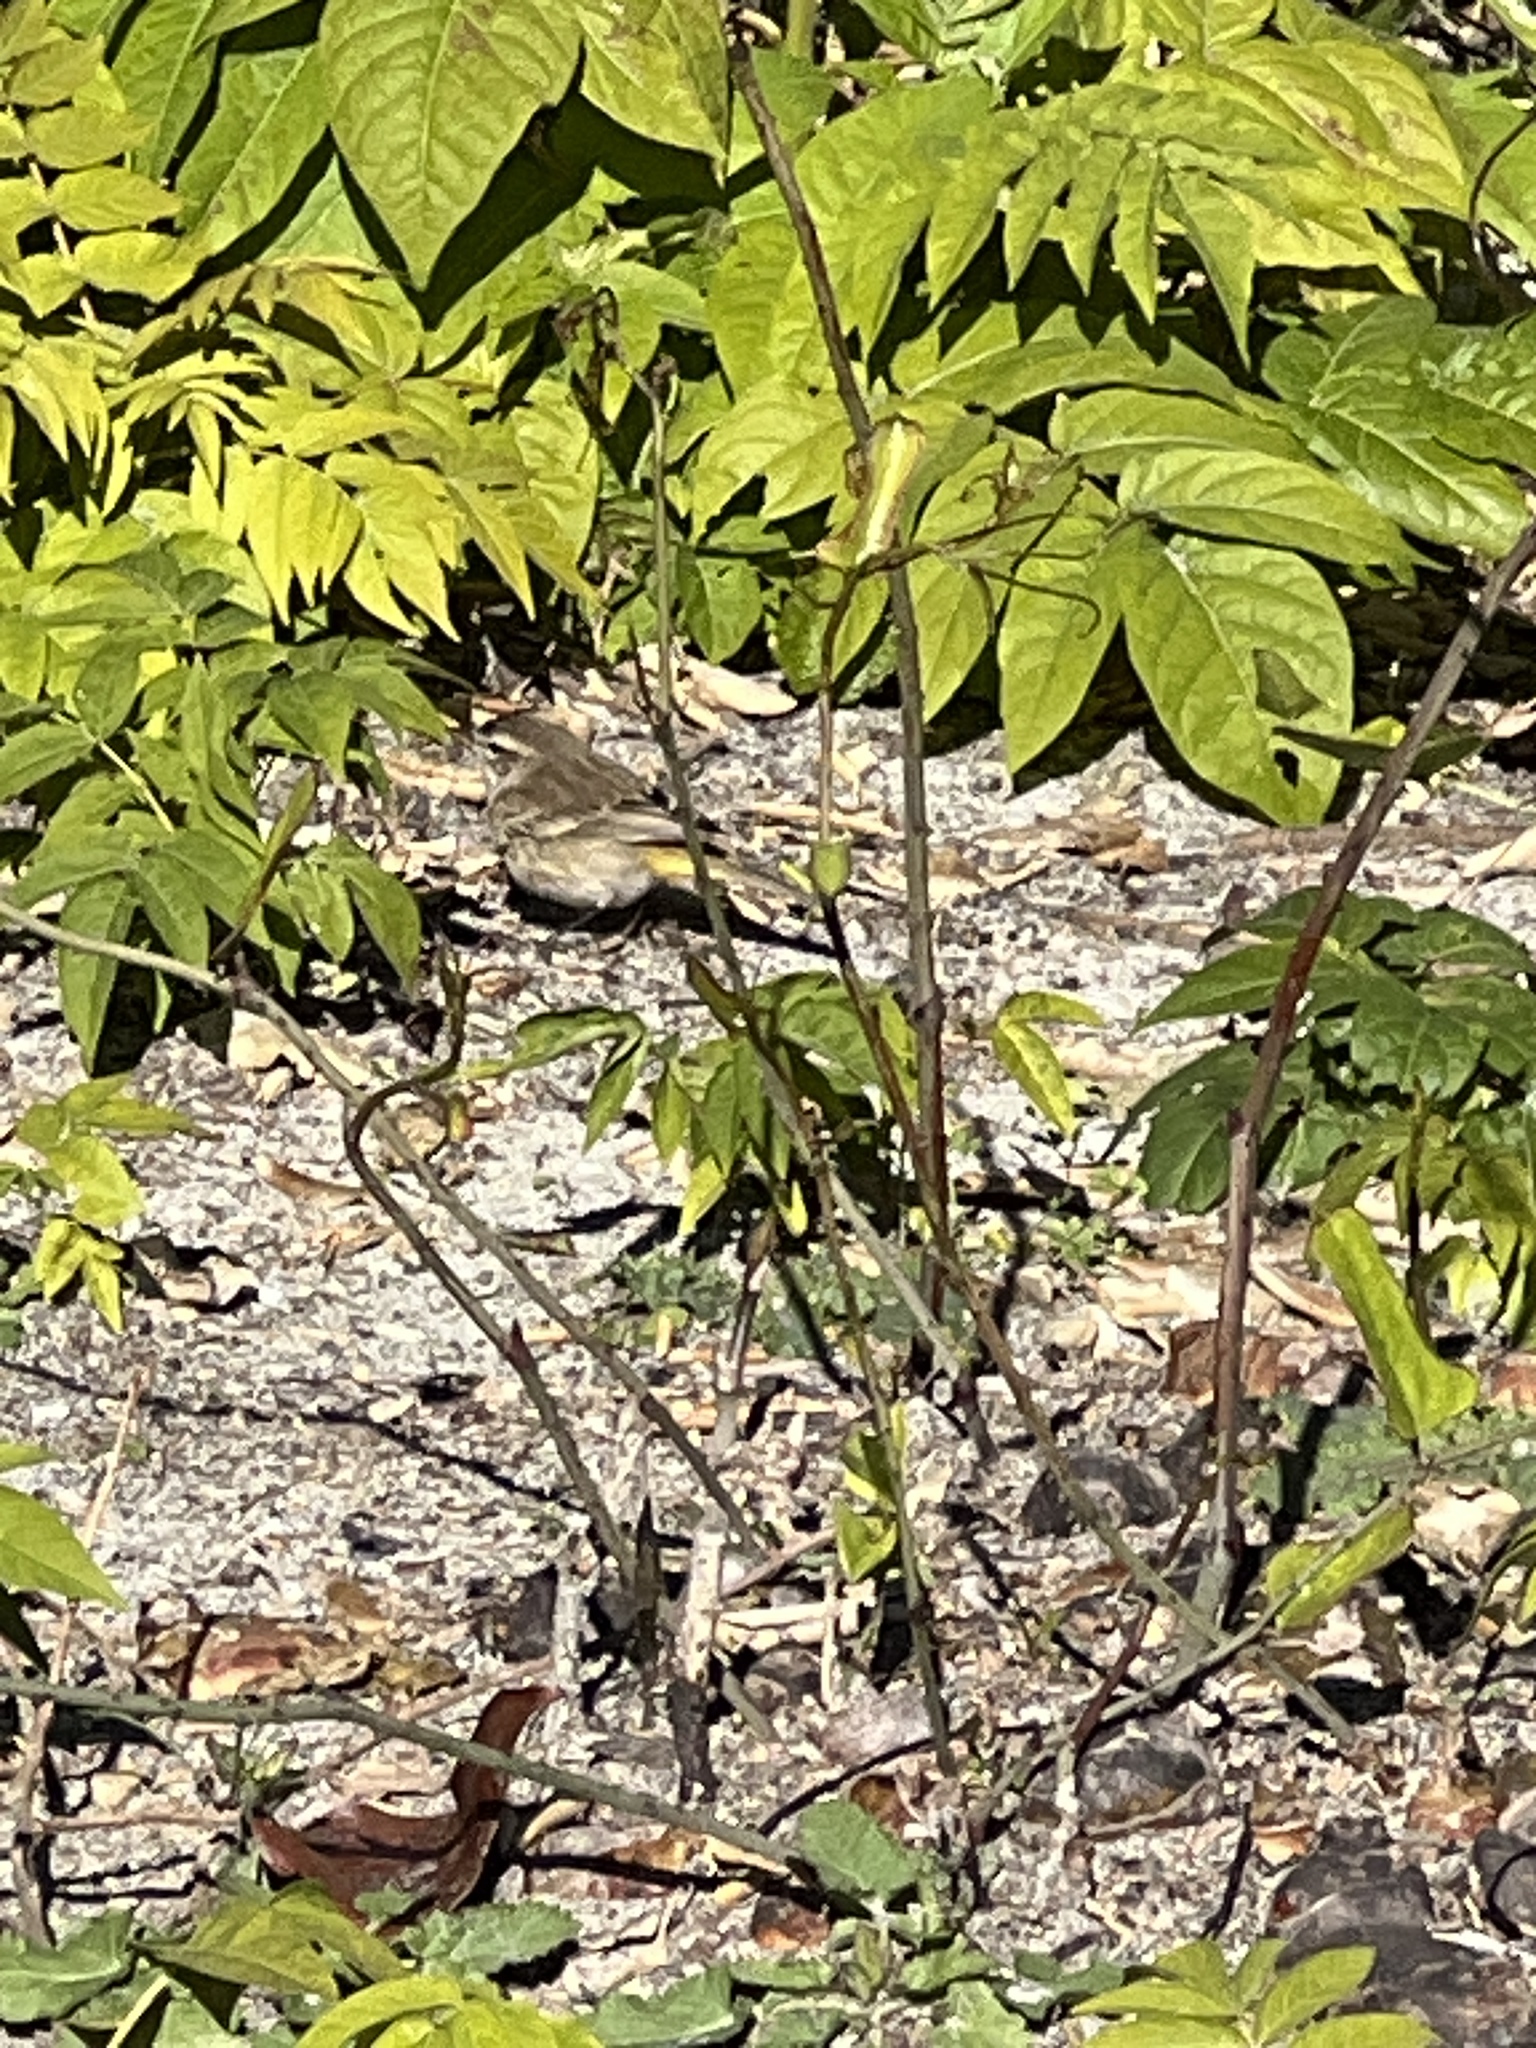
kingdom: Animalia
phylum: Chordata
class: Aves
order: Passeriformes
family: Parulidae
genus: Setophaga
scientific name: Setophaga palmarum
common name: Palm warbler
